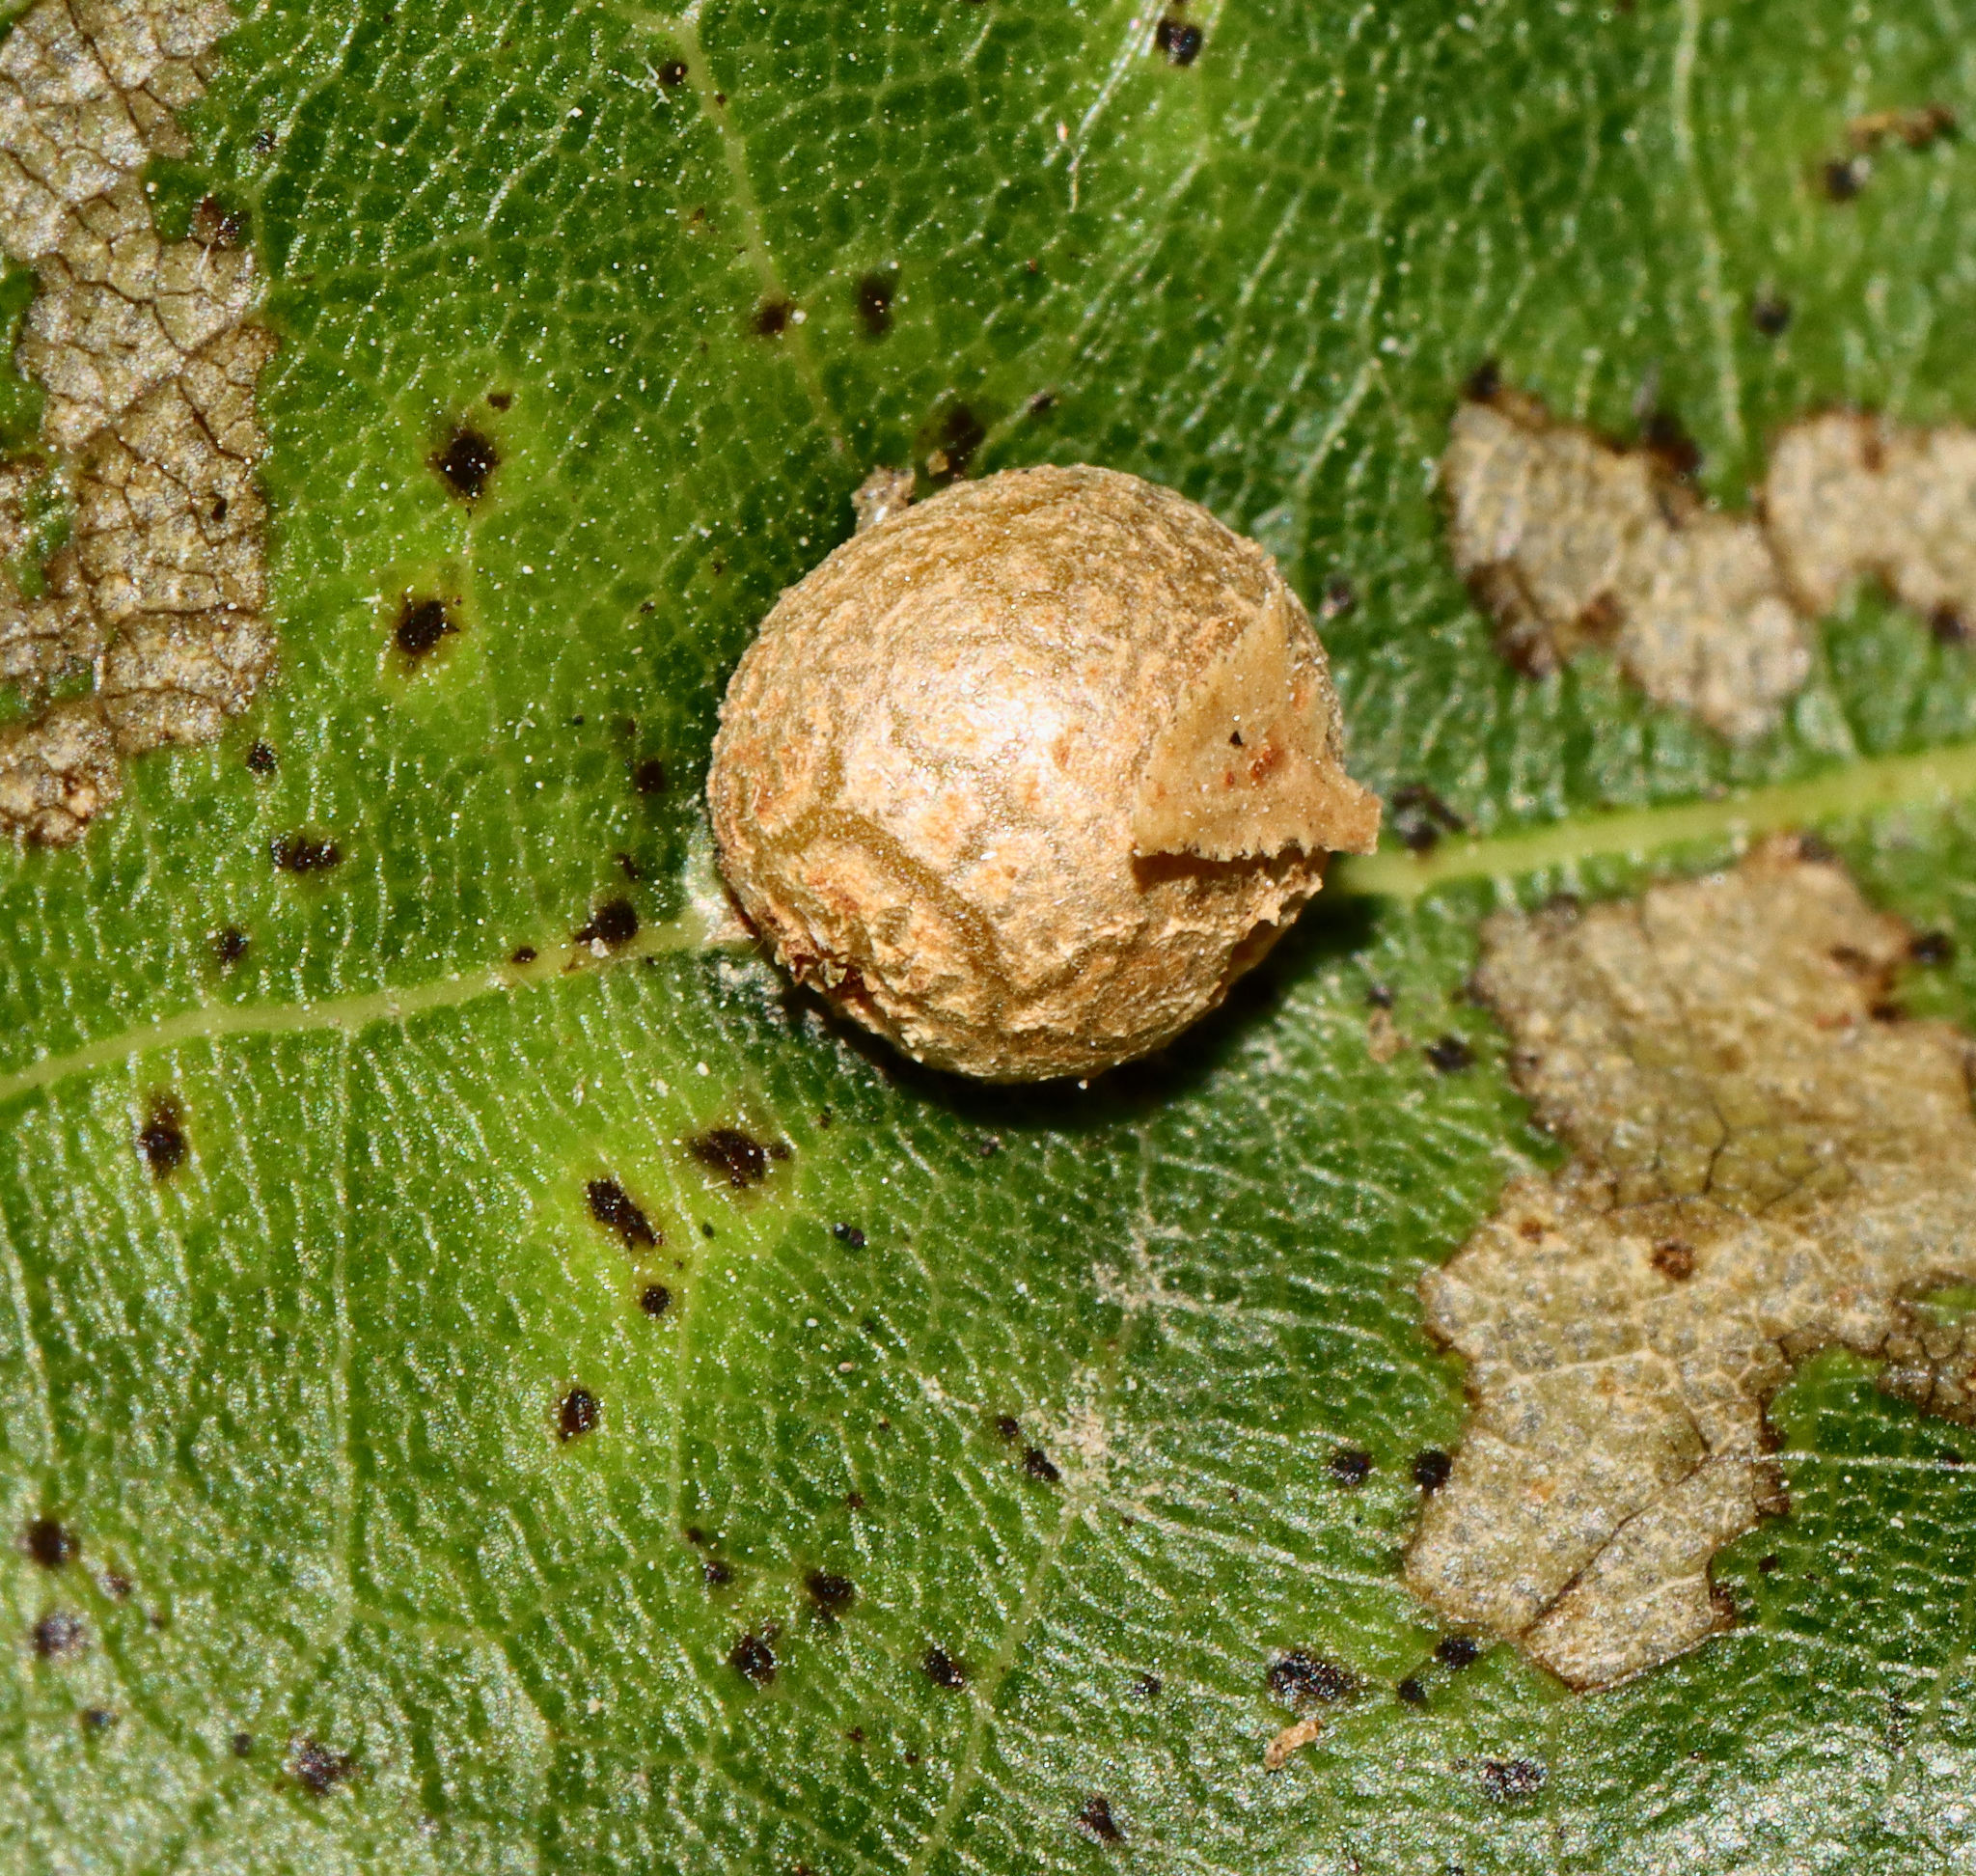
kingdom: Animalia
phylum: Arthropoda
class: Insecta
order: Diptera
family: Cecidomyiidae
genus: Polystepha
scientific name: Polystepha pilulae
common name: Oak leaf gall midge
